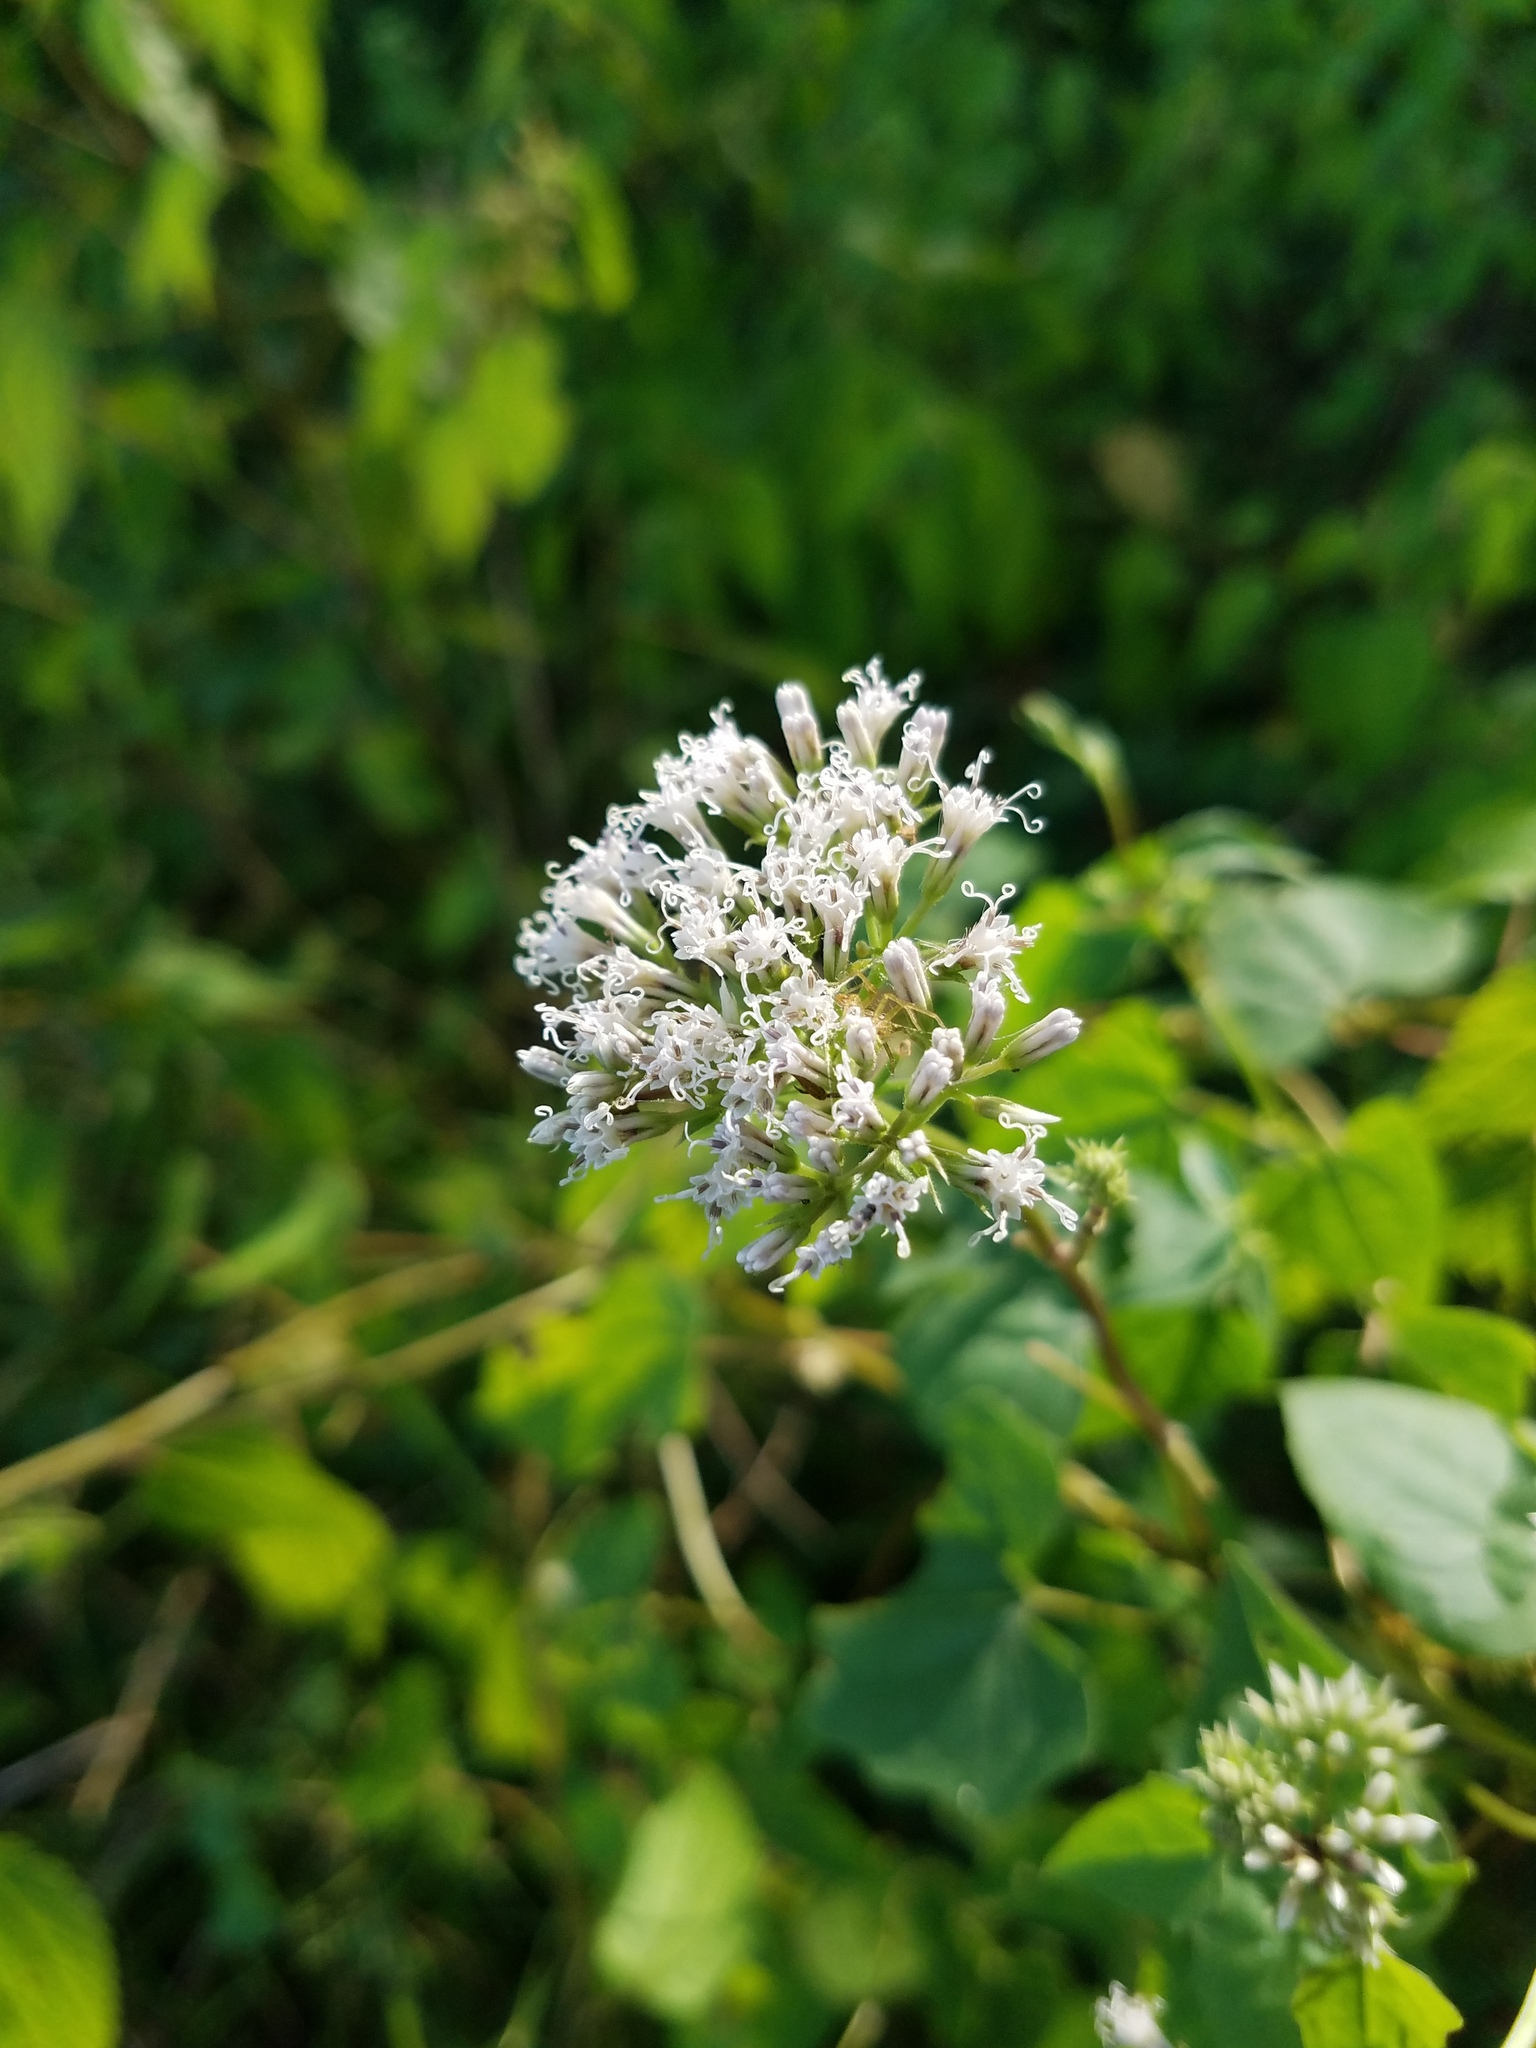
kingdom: Plantae
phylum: Tracheophyta
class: Magnoliopsida
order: Asterales
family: Asteraceae
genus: Mikania
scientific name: Mikania scandens
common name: Climbing hempvine
